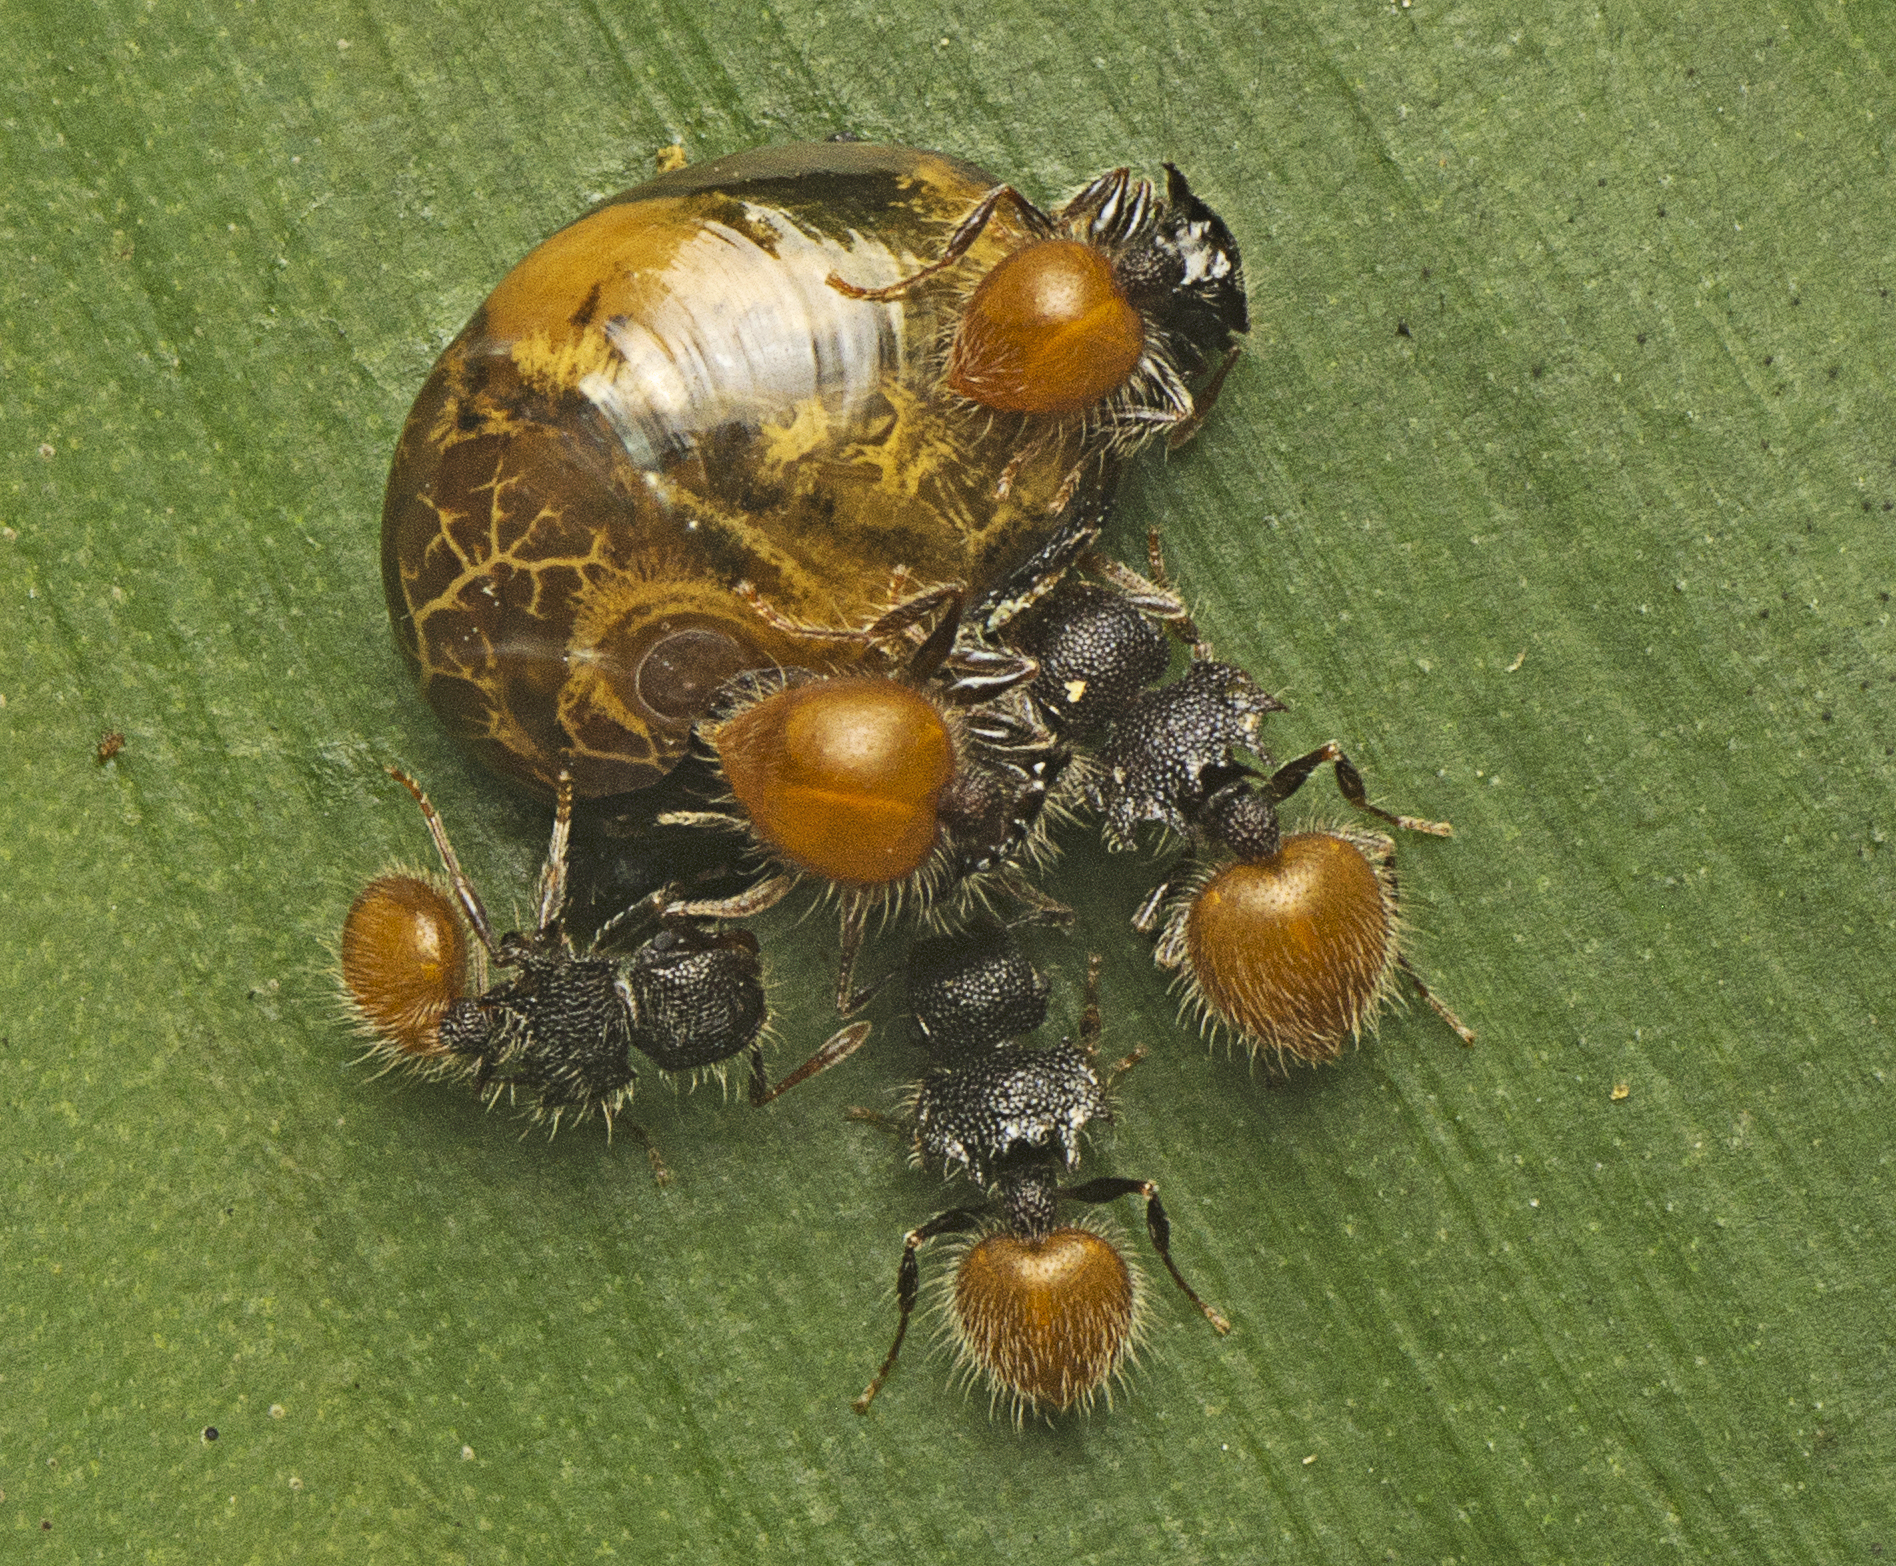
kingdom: Animalia
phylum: Arthropoda
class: Insecta
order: Hymenoptera
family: Formicidae
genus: Meranoplus
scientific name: Meranoplus hirsutus
